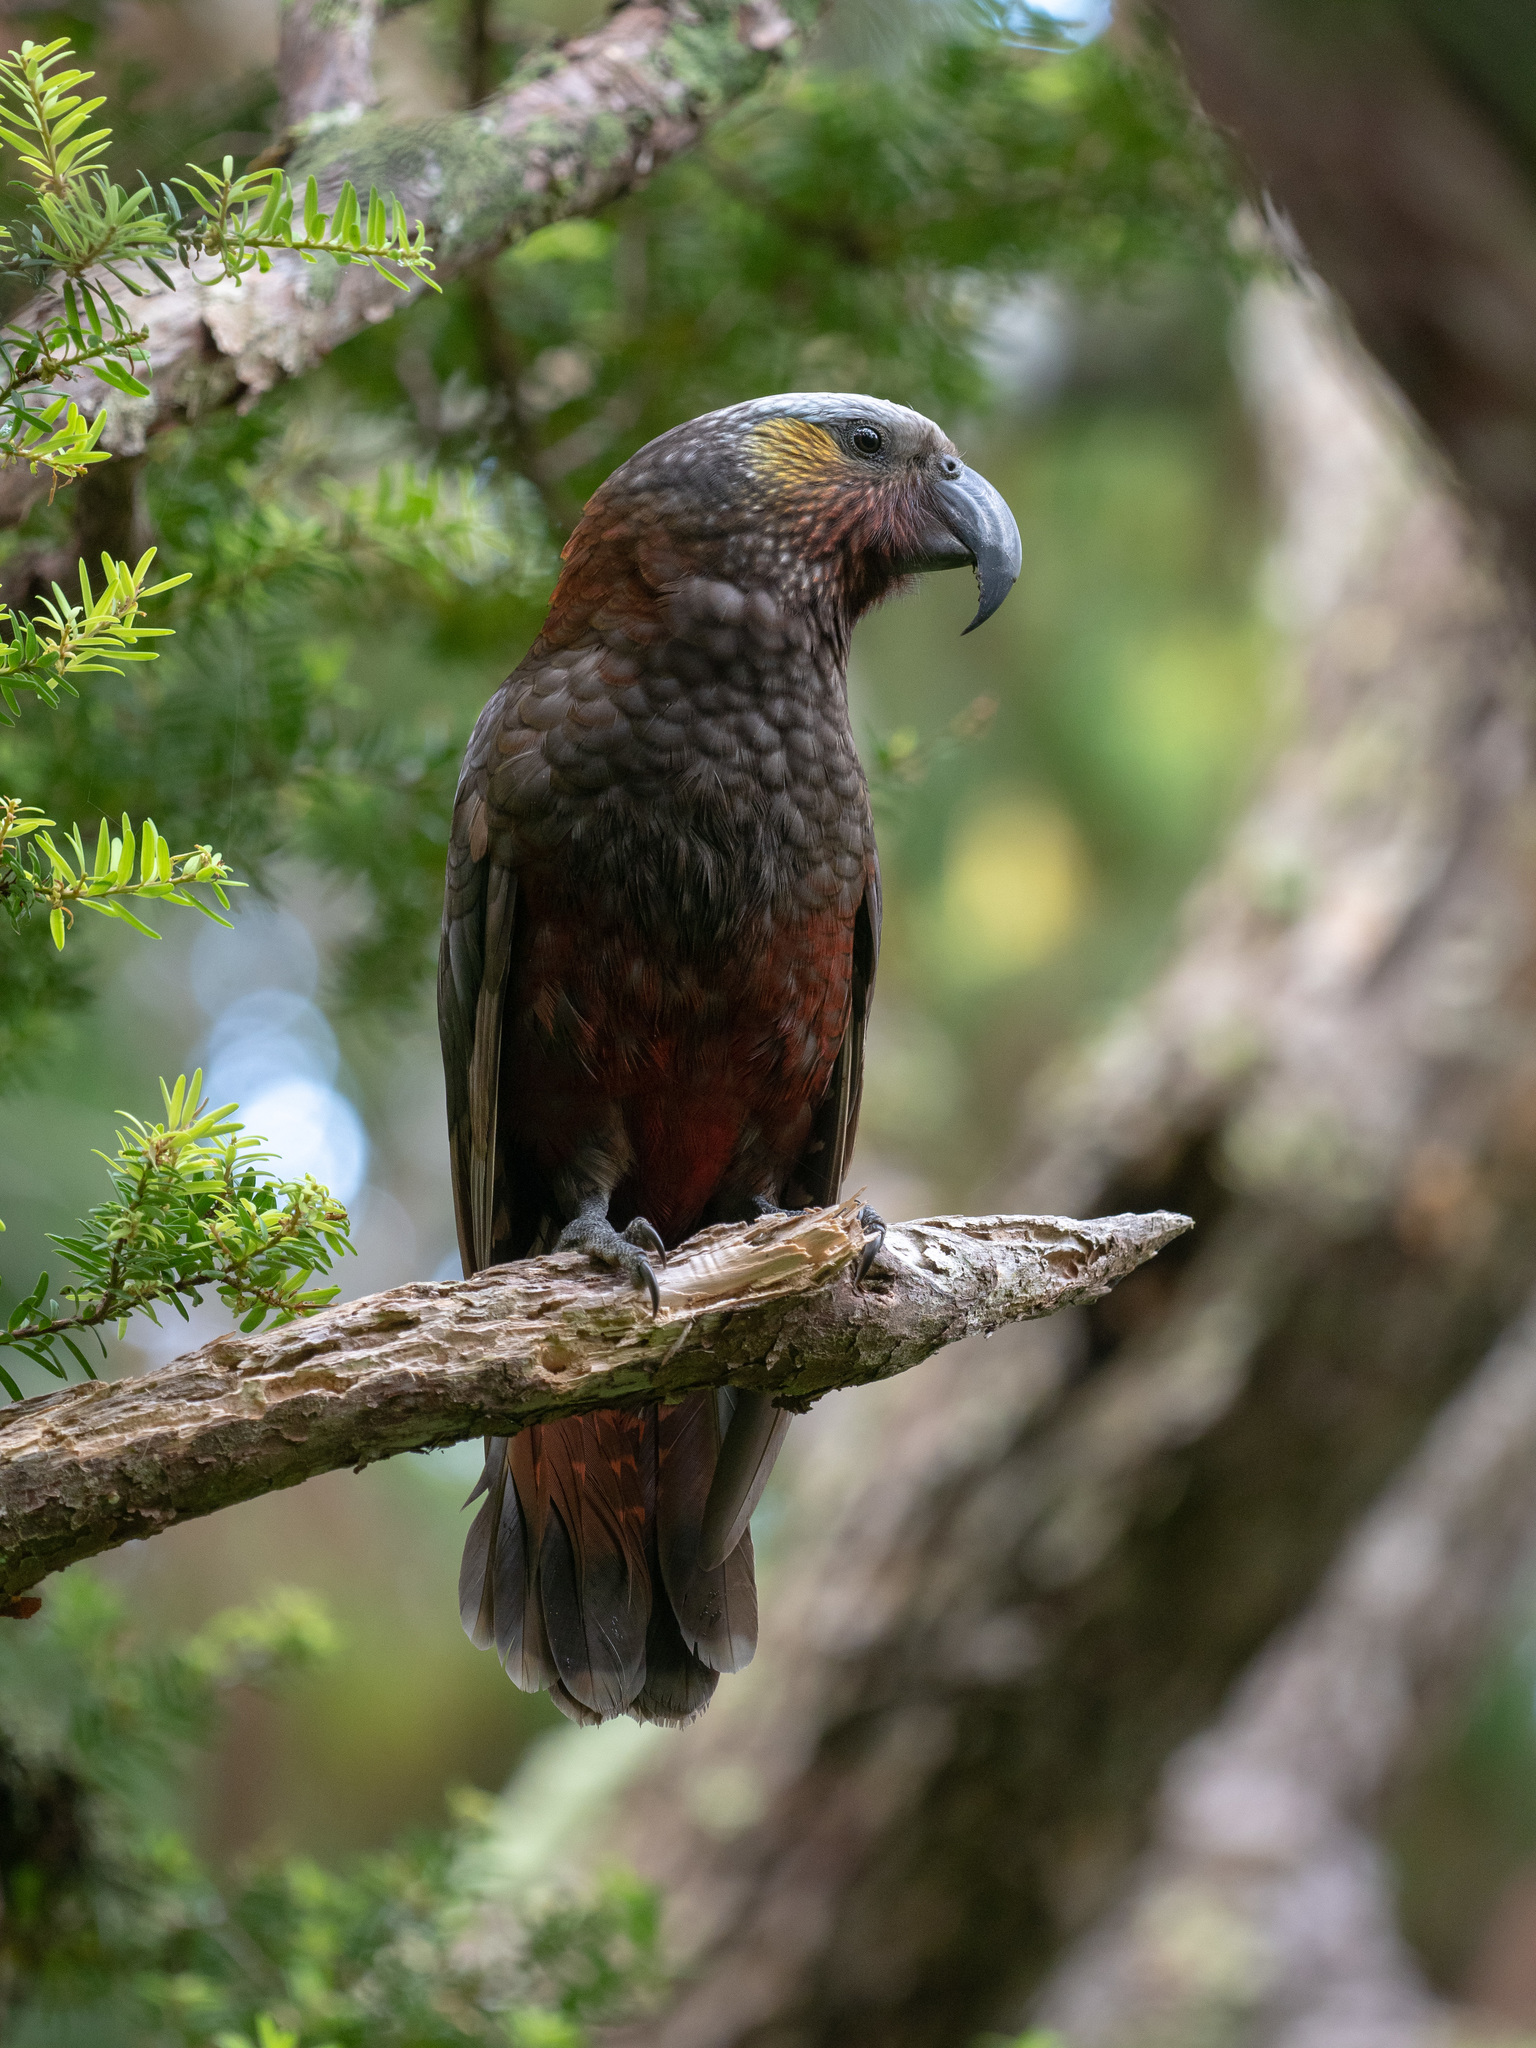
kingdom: Animalia
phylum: Chordata
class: Aves
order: Psittaciformes
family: Psittacidae
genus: Nestor
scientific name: Nestor meridionalis
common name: New zealand kaka
